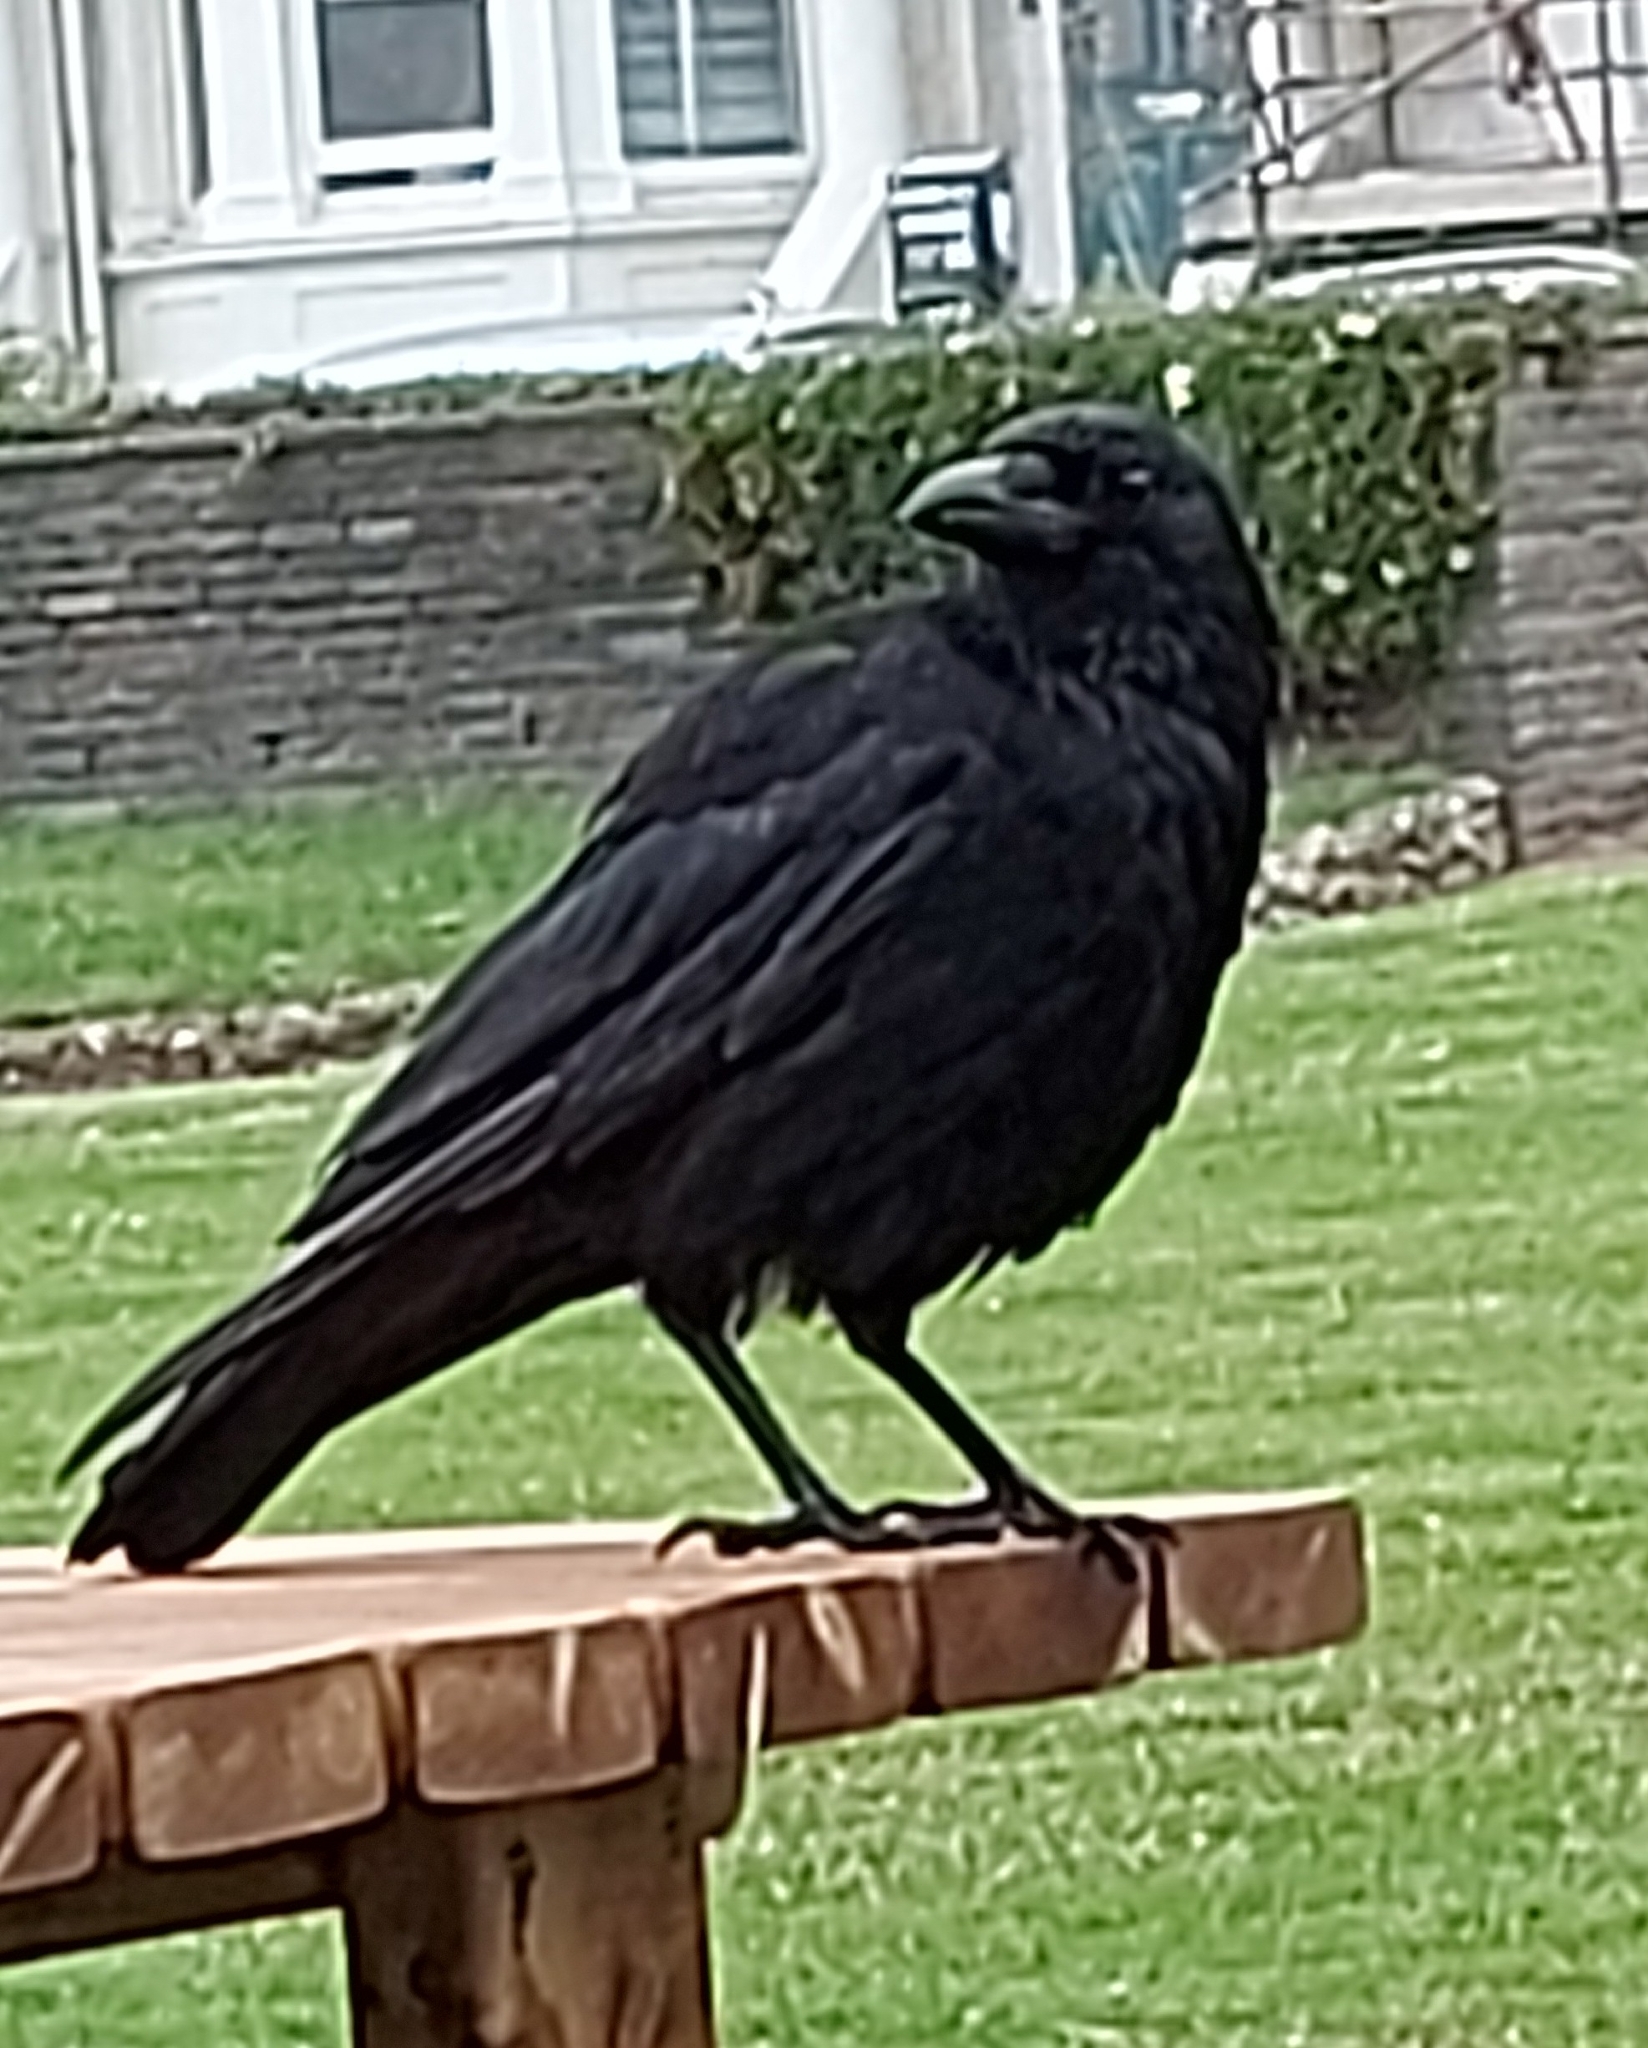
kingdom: Animalia
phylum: Chordata
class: Aves
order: Passeriformes
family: Corvidae
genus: Corvus
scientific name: Corvus corone
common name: Carrion crow
